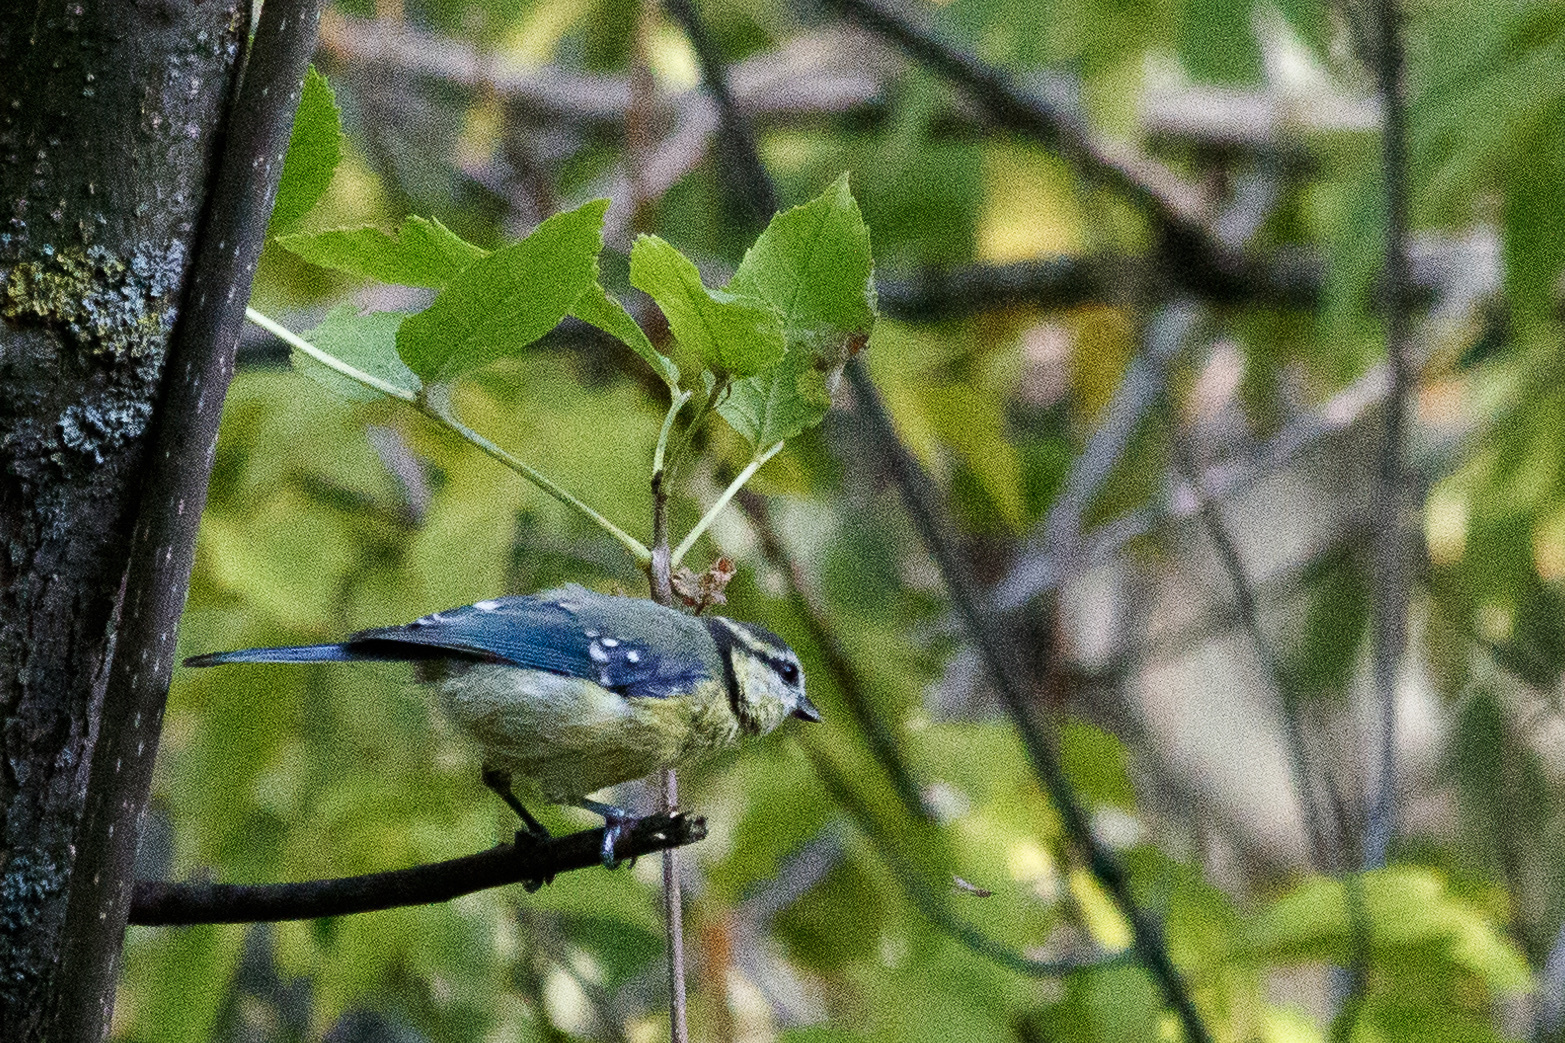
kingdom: Animalia
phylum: Chordata
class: Aves
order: Passeriformes
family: Paridae
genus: Cyanistes
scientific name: Cyanistes caeruleus
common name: Eurasian blue tit
